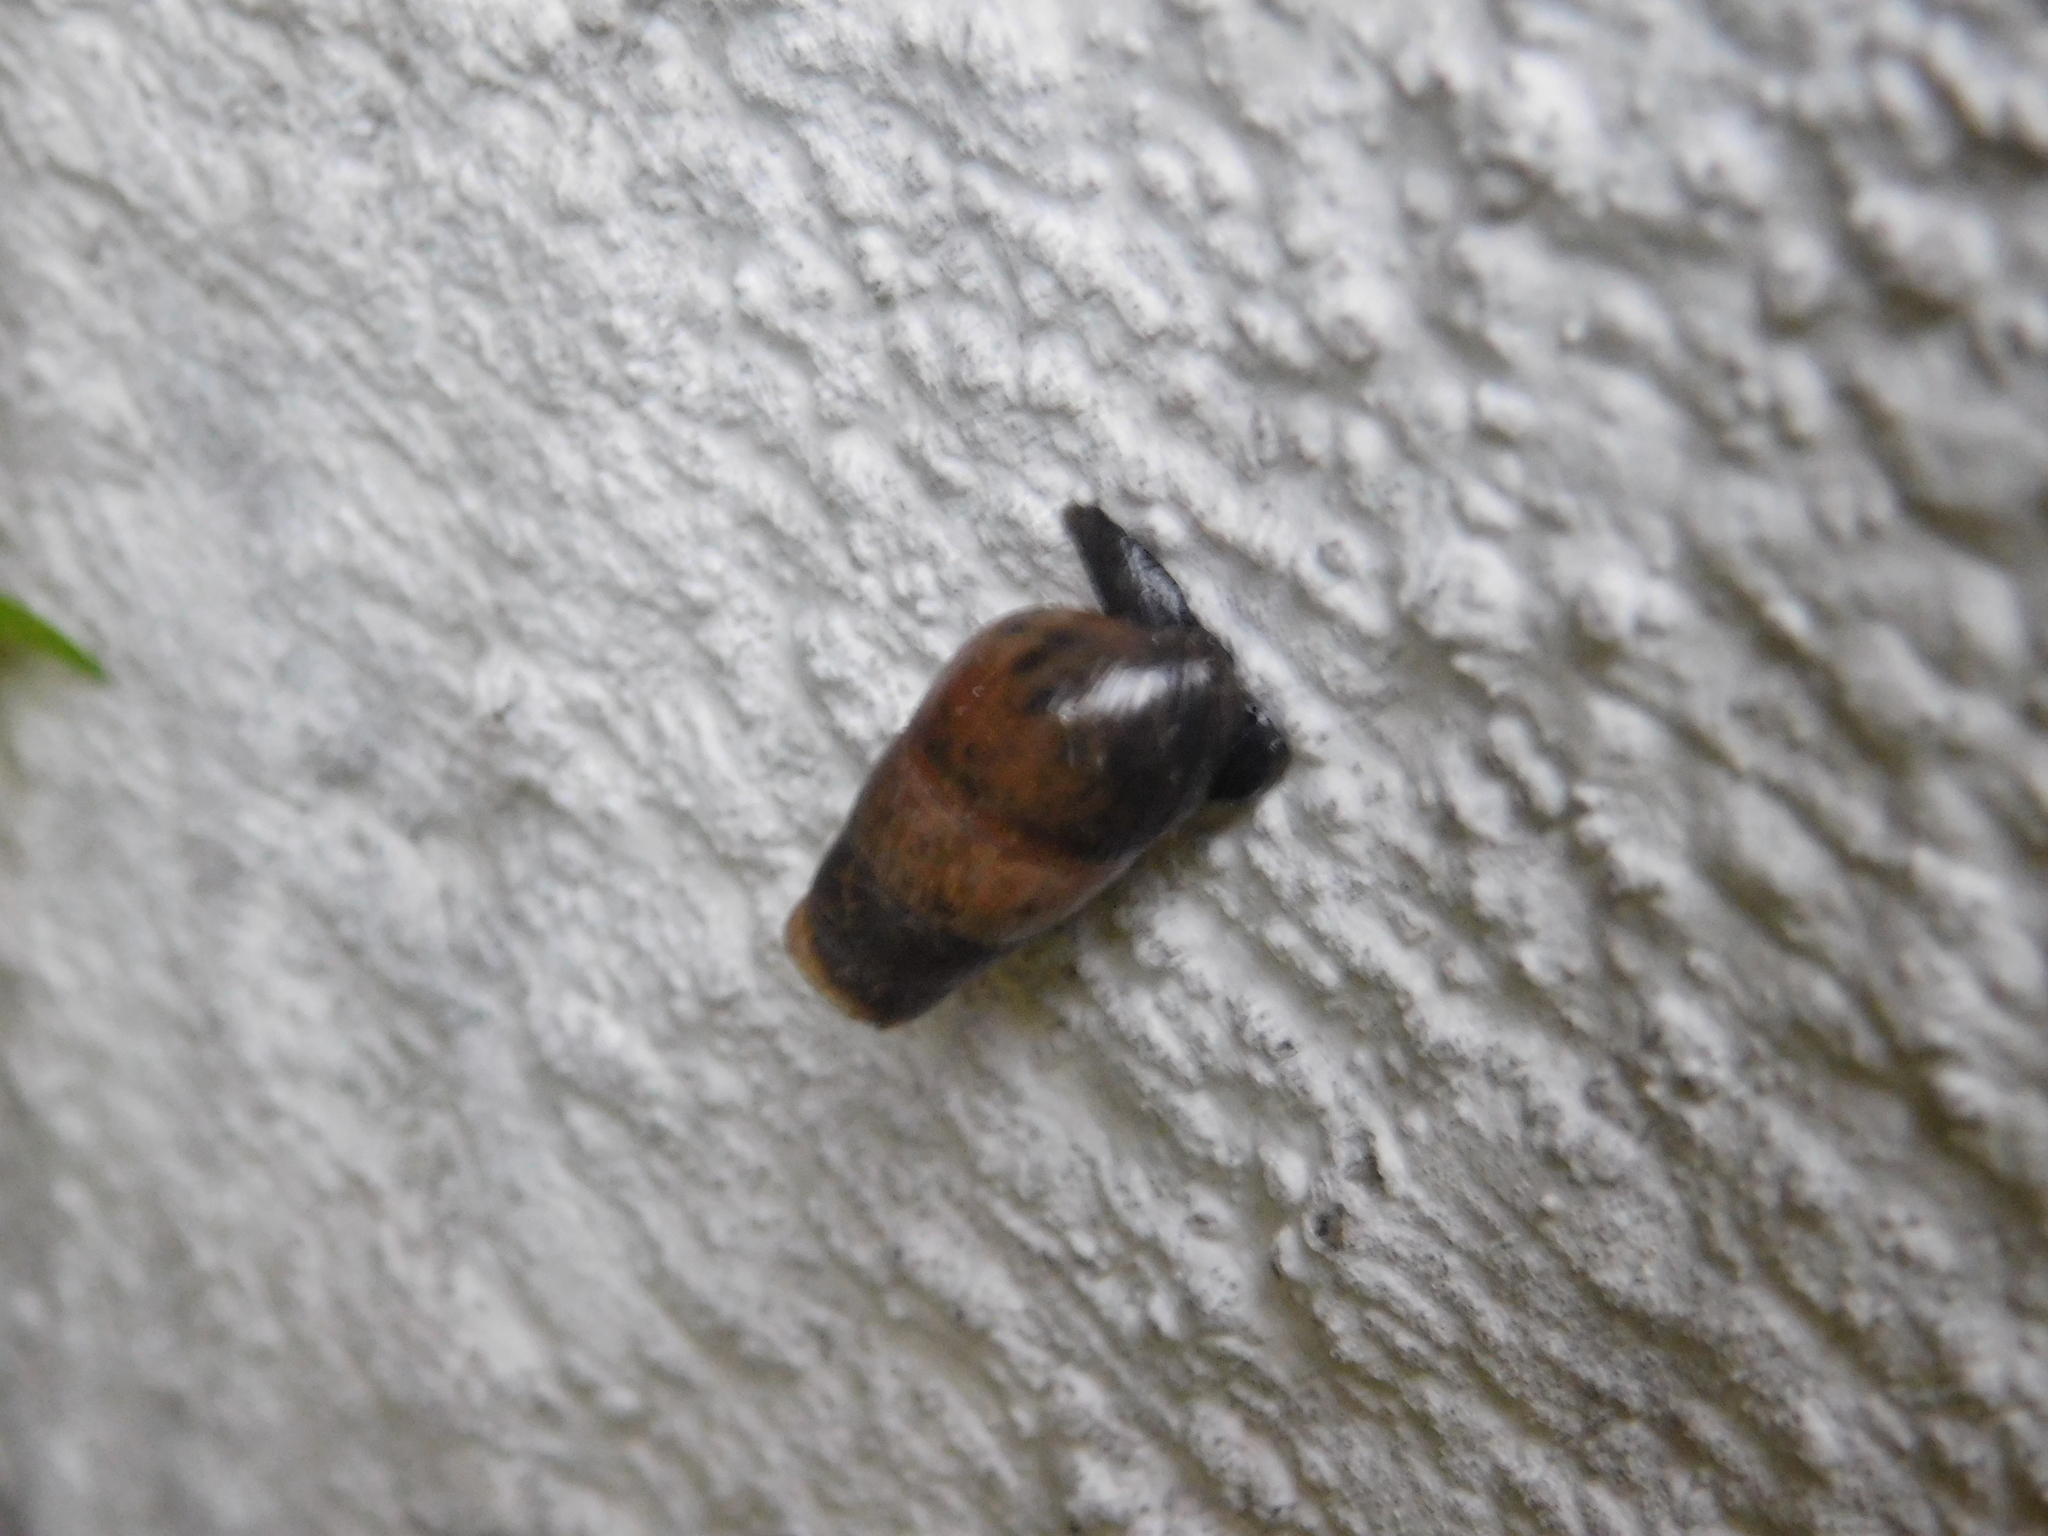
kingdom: Animalia
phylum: Mollusca
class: Gastropoda
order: Stylommatophora
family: Achatinidae
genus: Rumina
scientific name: Rumina decollata
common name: Decollate snail
